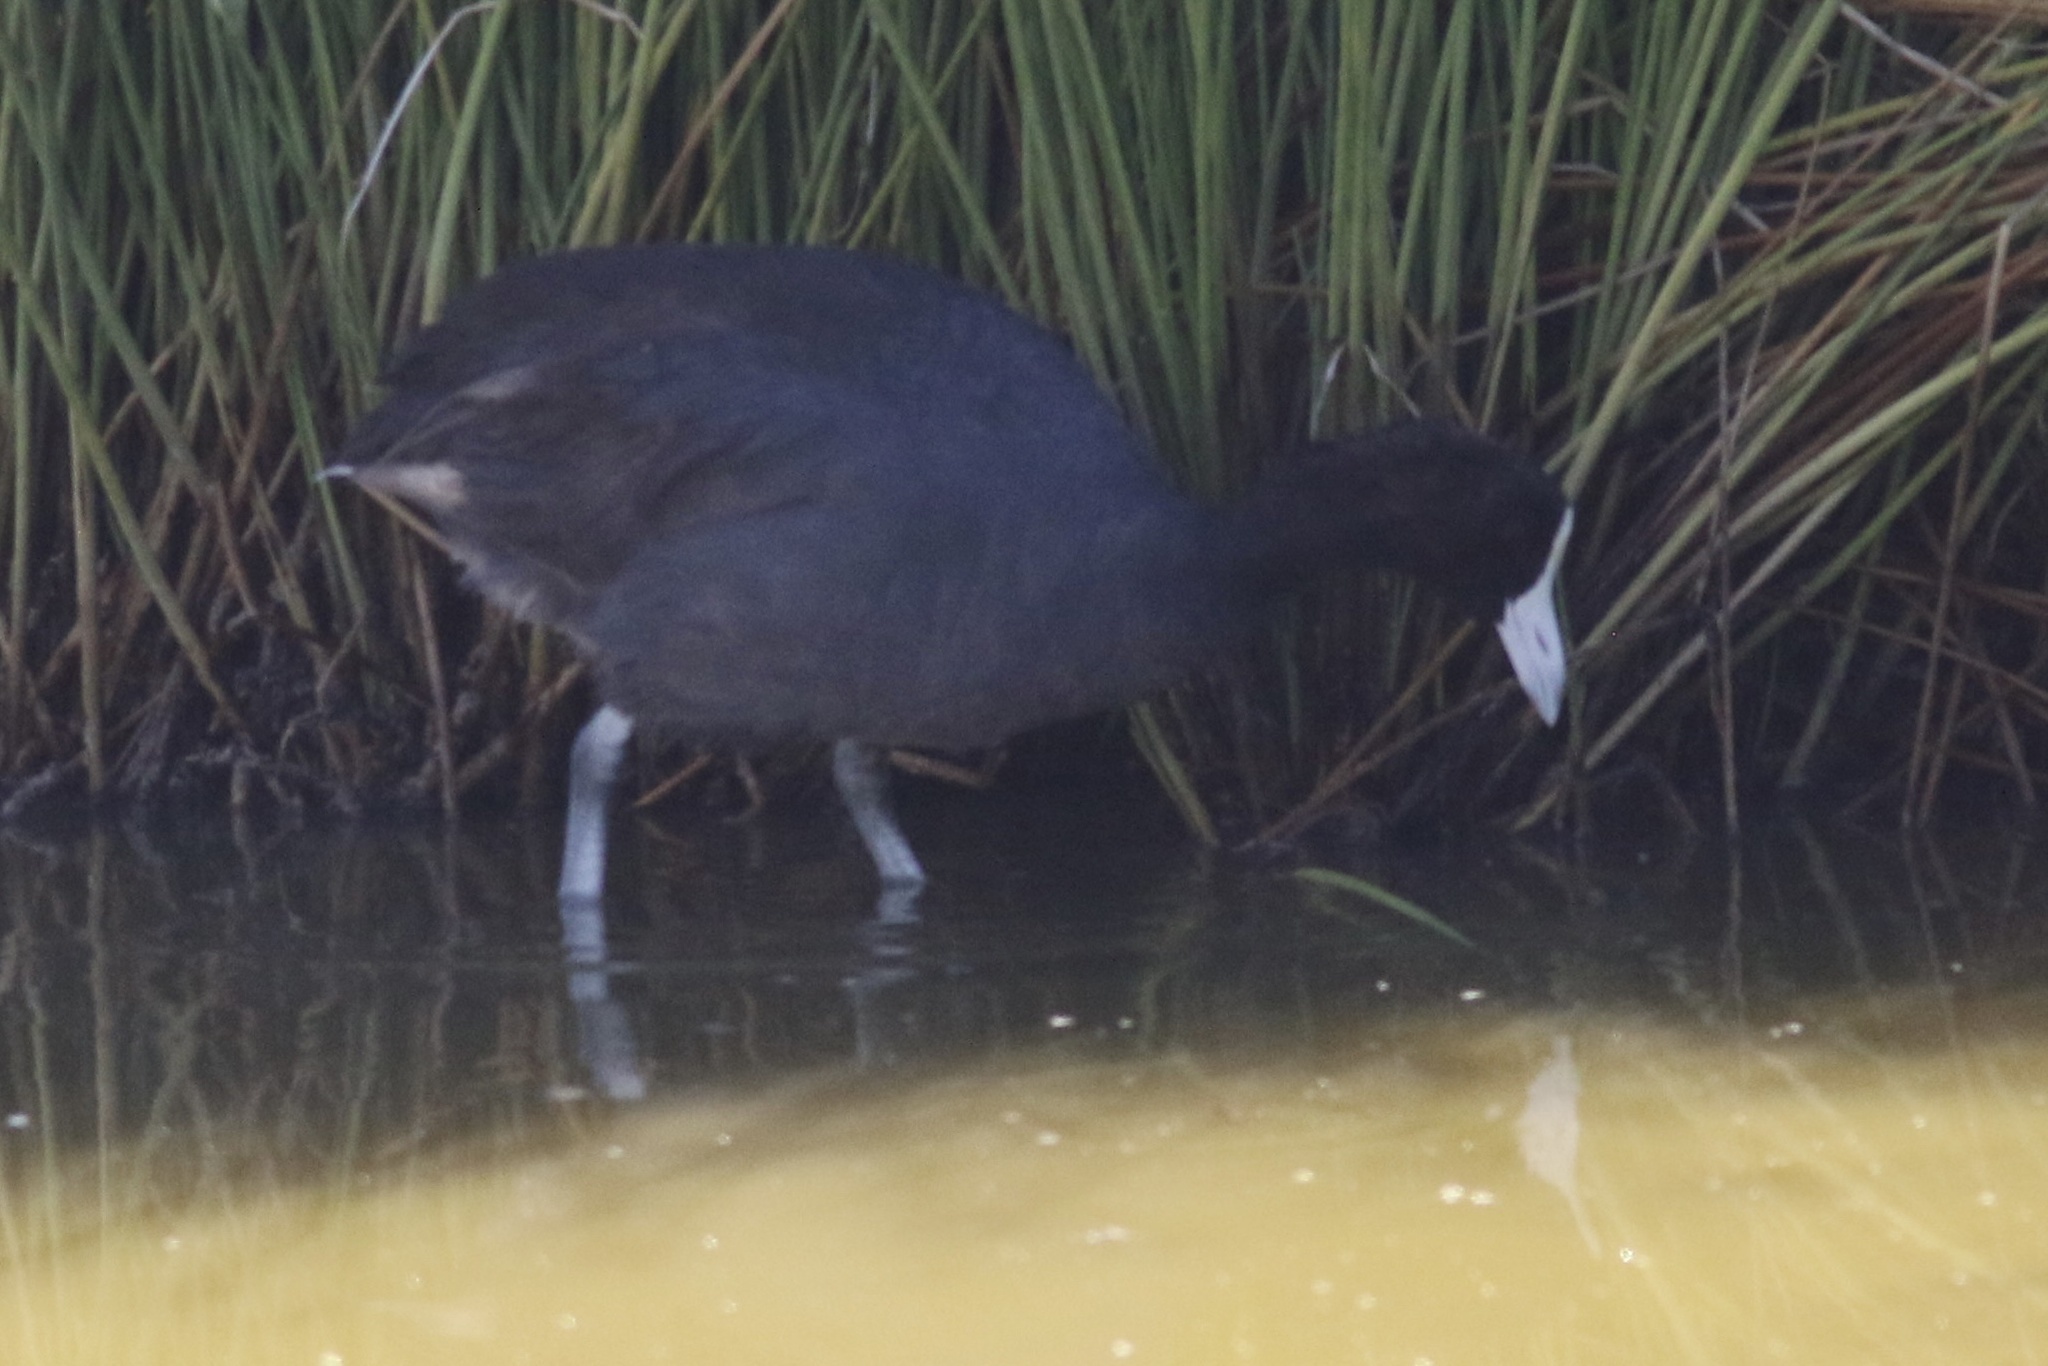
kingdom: Animalia
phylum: Chordata
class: Aves
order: Gruiformes
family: Rallidae
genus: Fulica
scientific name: Fulica alai
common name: Hawaiian coot
